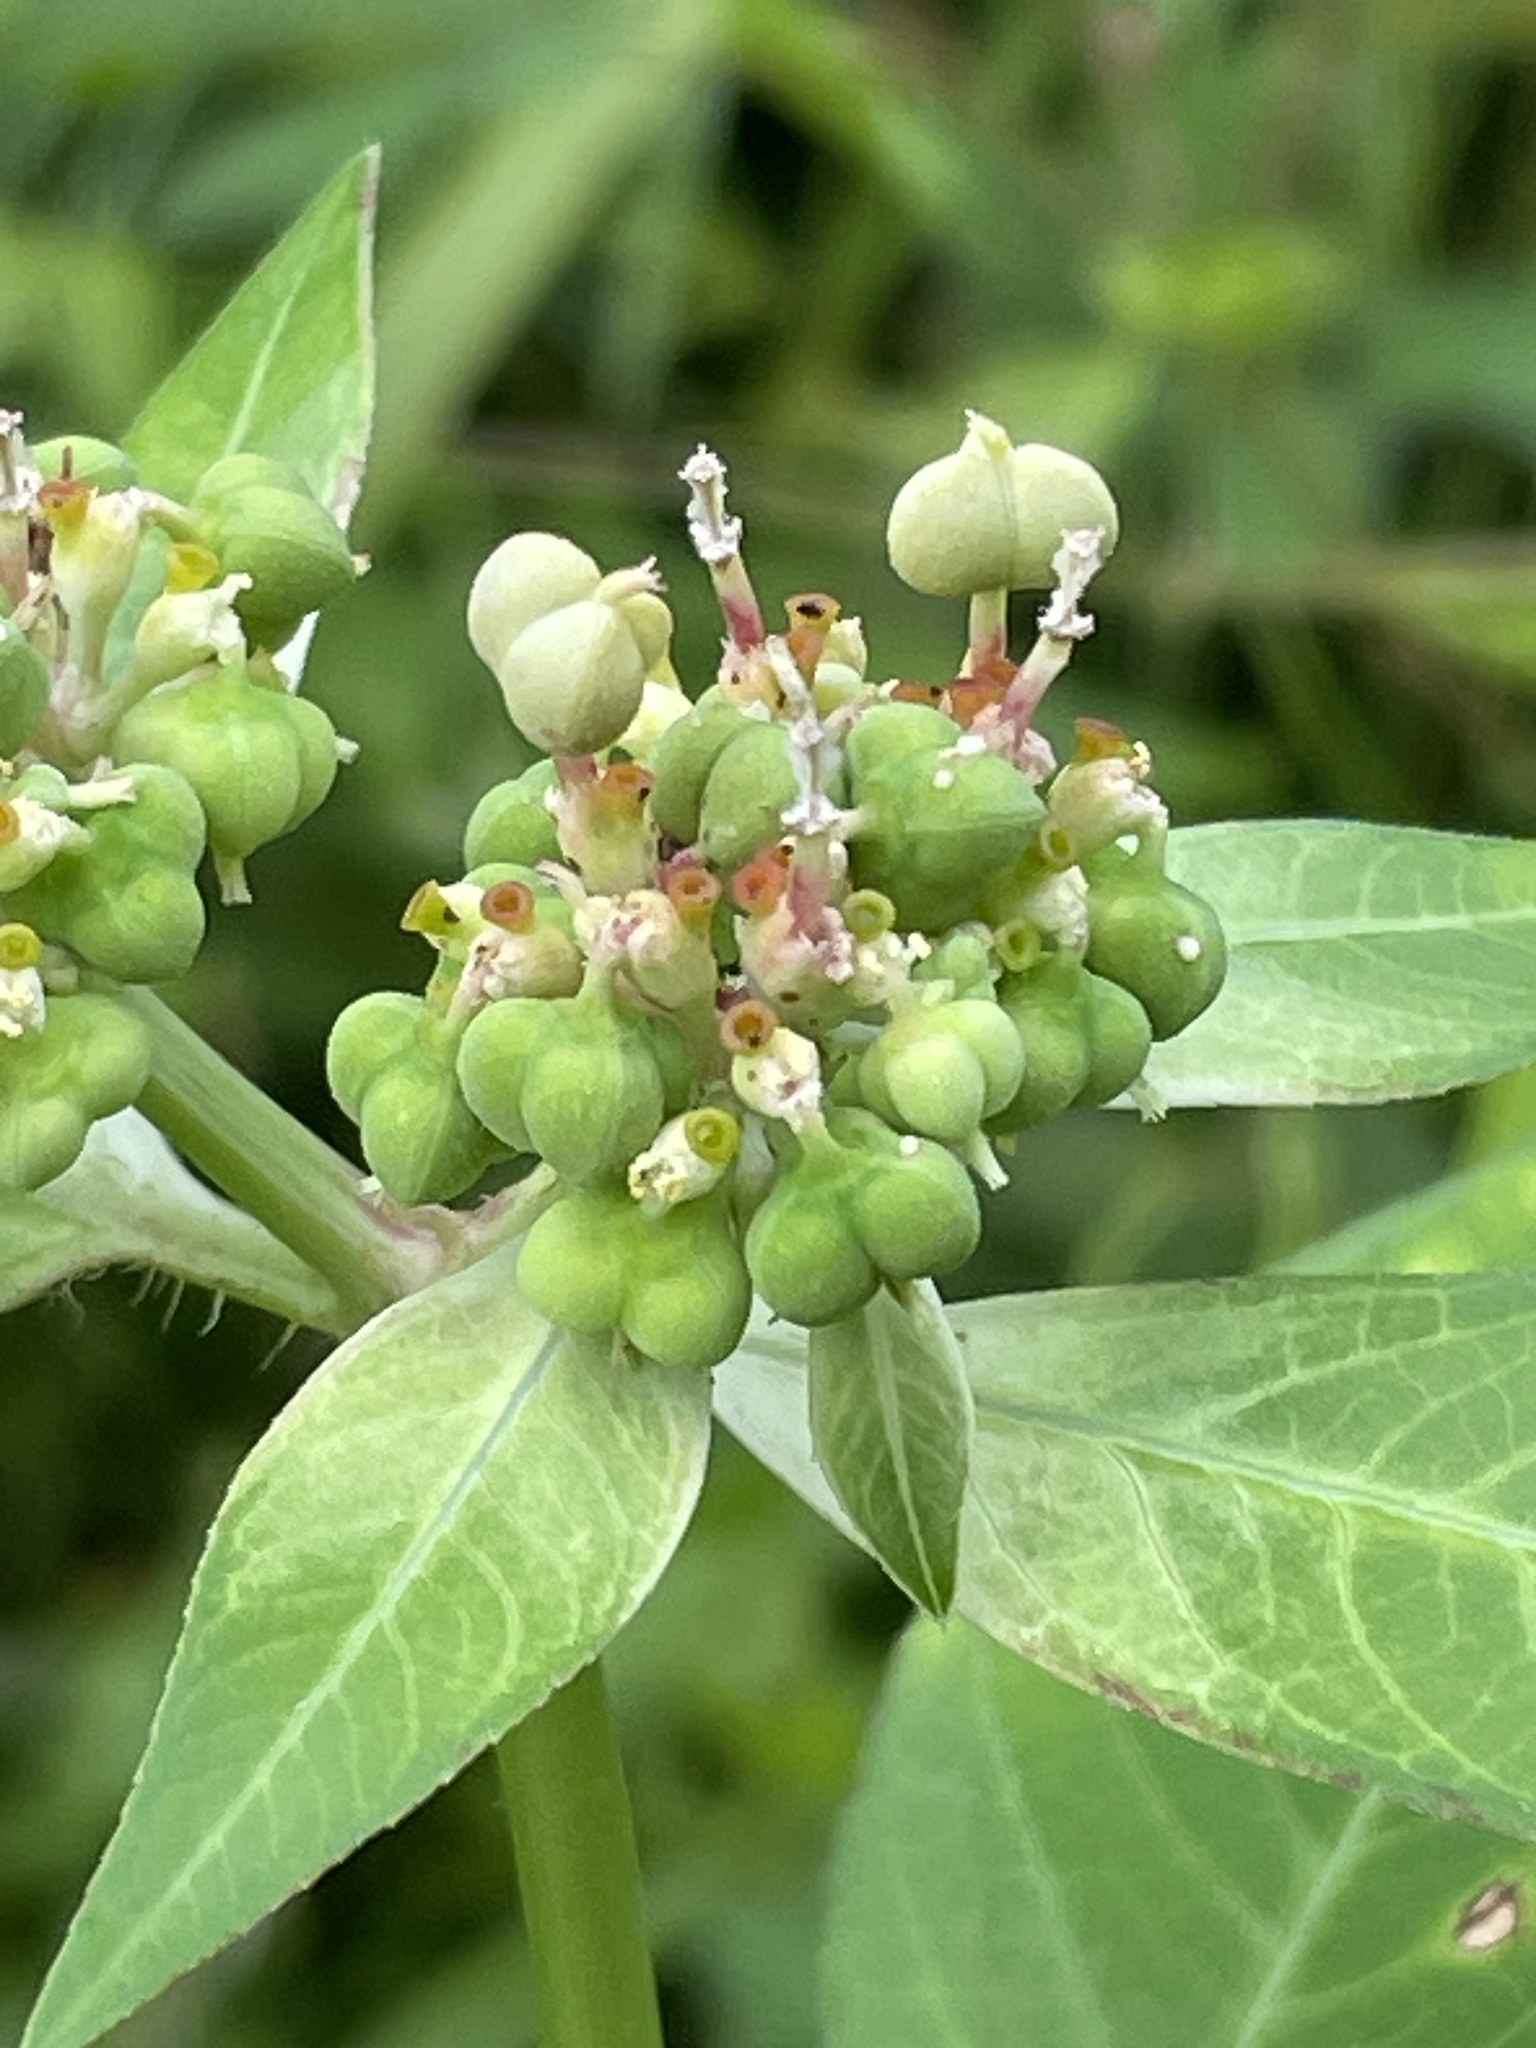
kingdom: Plantae
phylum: Tracheophyta
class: Magnoliopsida
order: Malpighiales
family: Euphorbiaceae
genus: Euphorbia
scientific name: Euphorbia heterophylla
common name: Mexican fireplant
